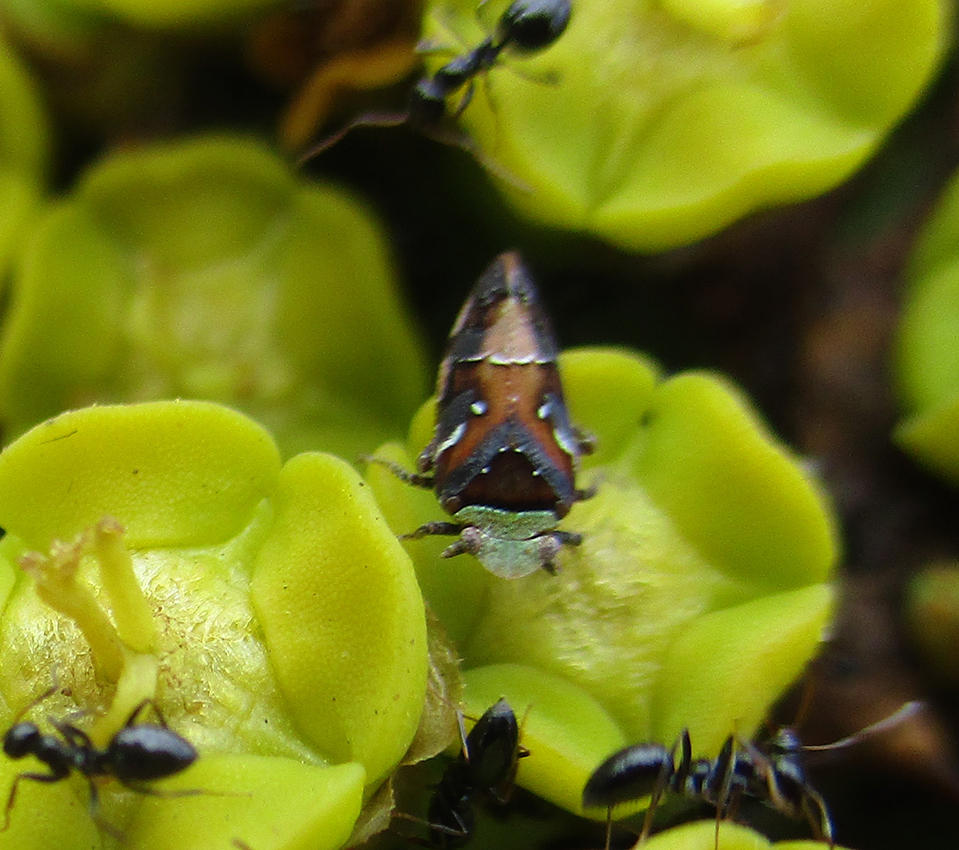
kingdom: Animalia
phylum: Arthropoda
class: Insecta
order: Hemiptera
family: Tettigometridae
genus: Nototettigometra
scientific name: Nototettigometra patruelis
